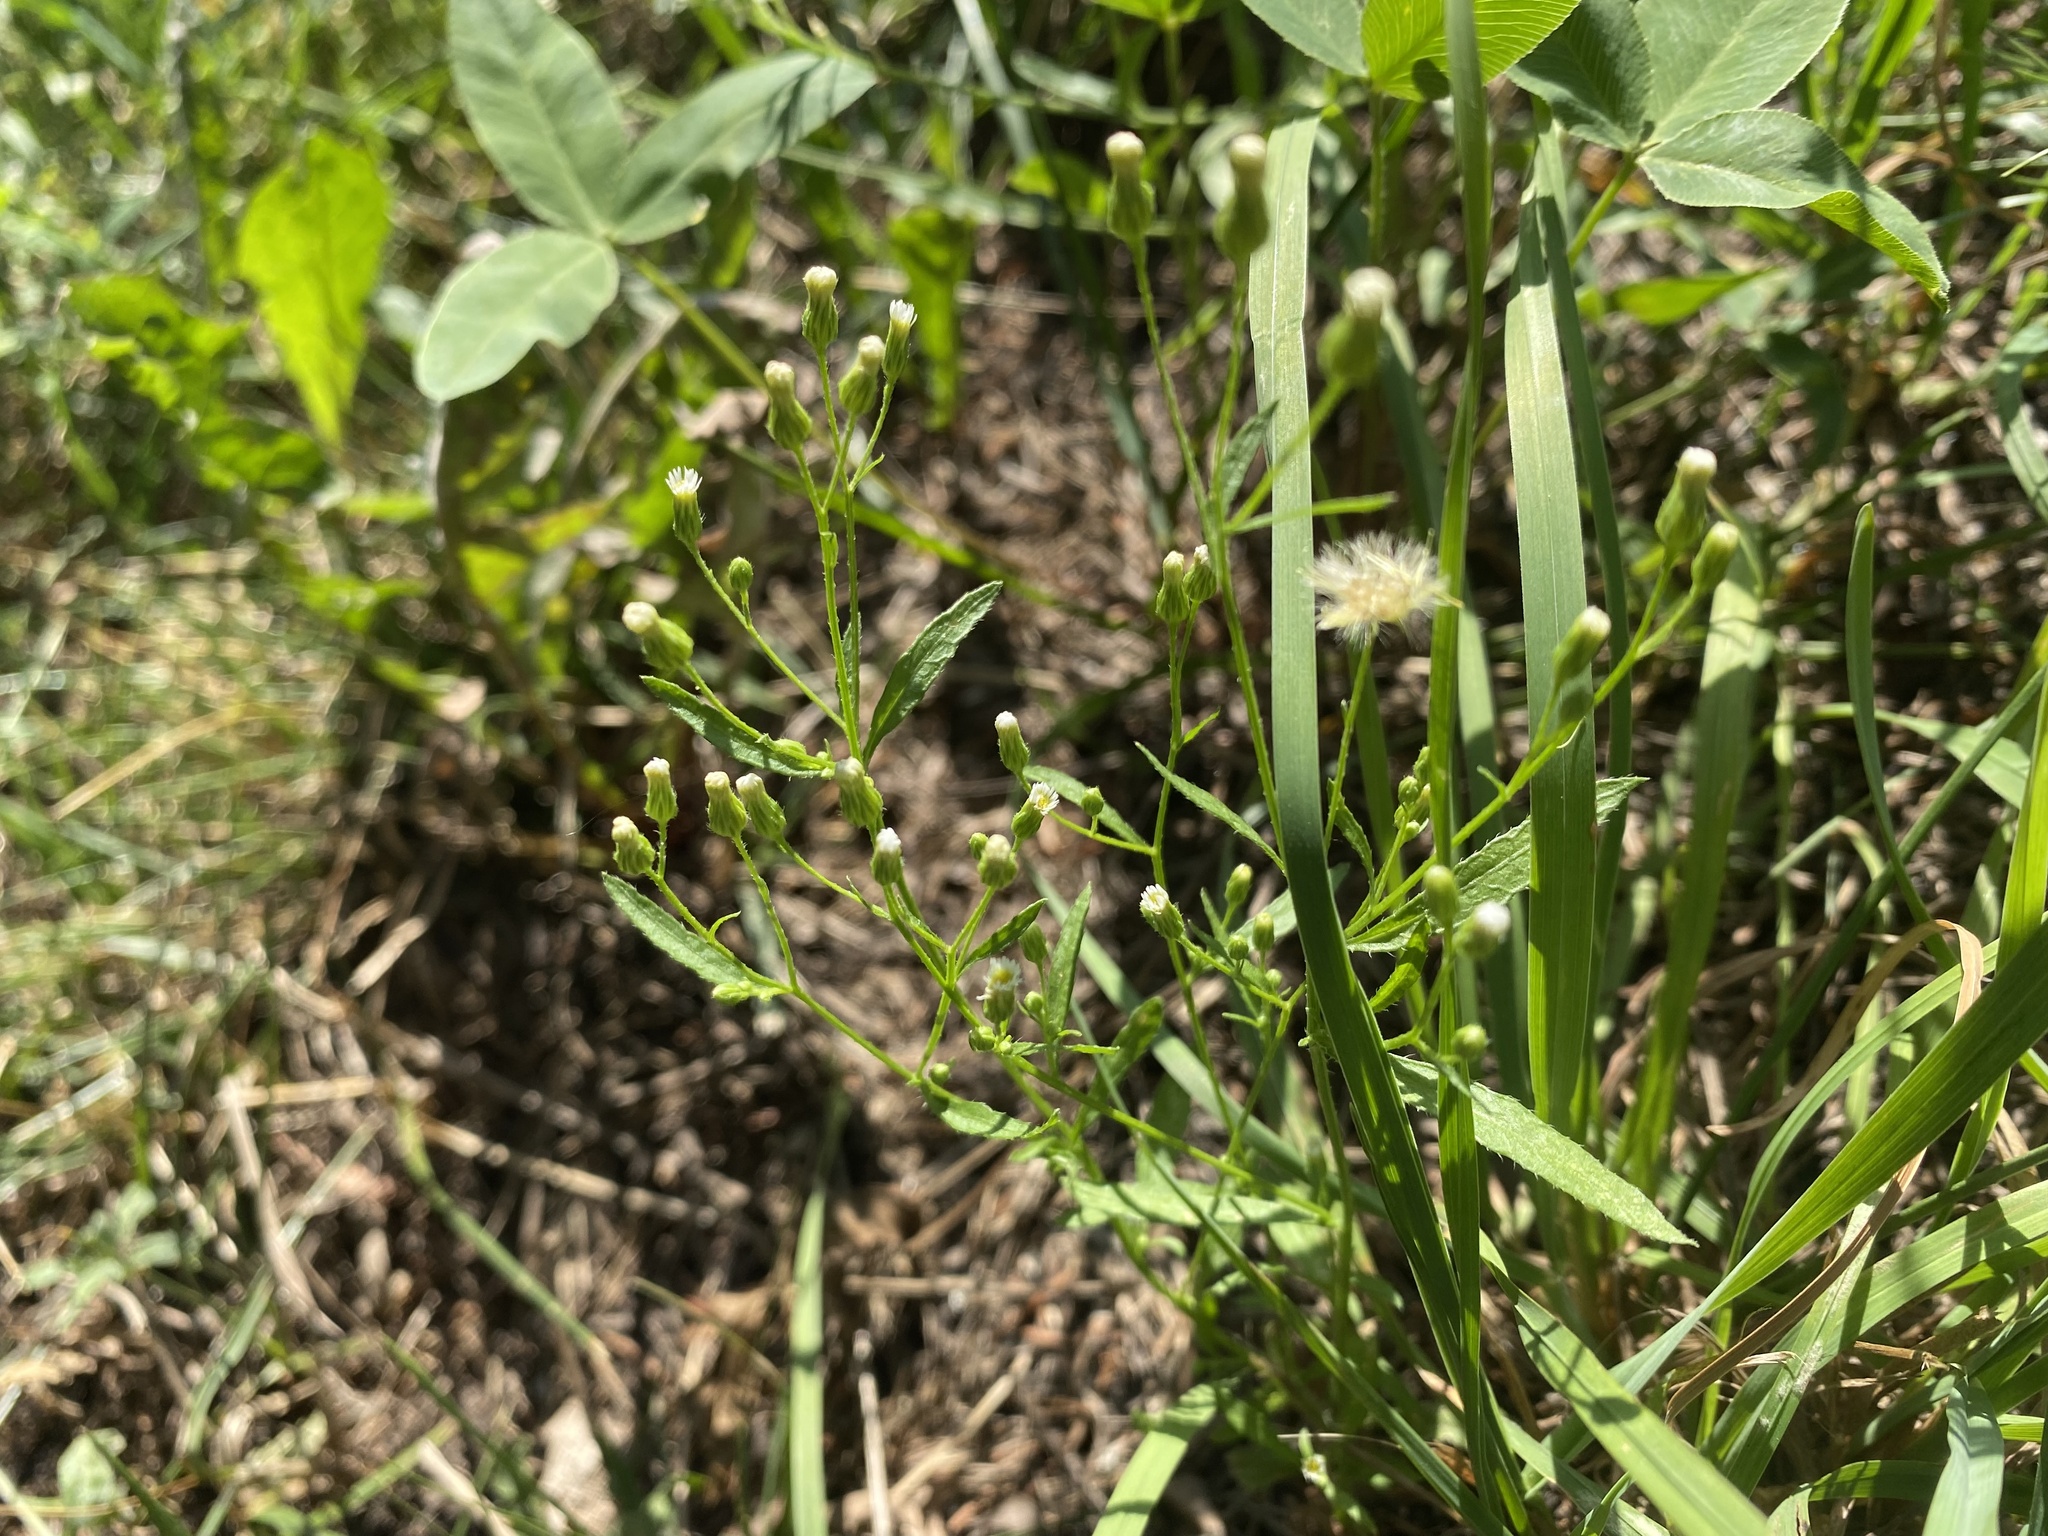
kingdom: Plantae
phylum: Tracheophyta
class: Magnoliopsida
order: Asterales
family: Asteraceae
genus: Erigeron
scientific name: Erigeron canadensis
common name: Canadian fleabane
